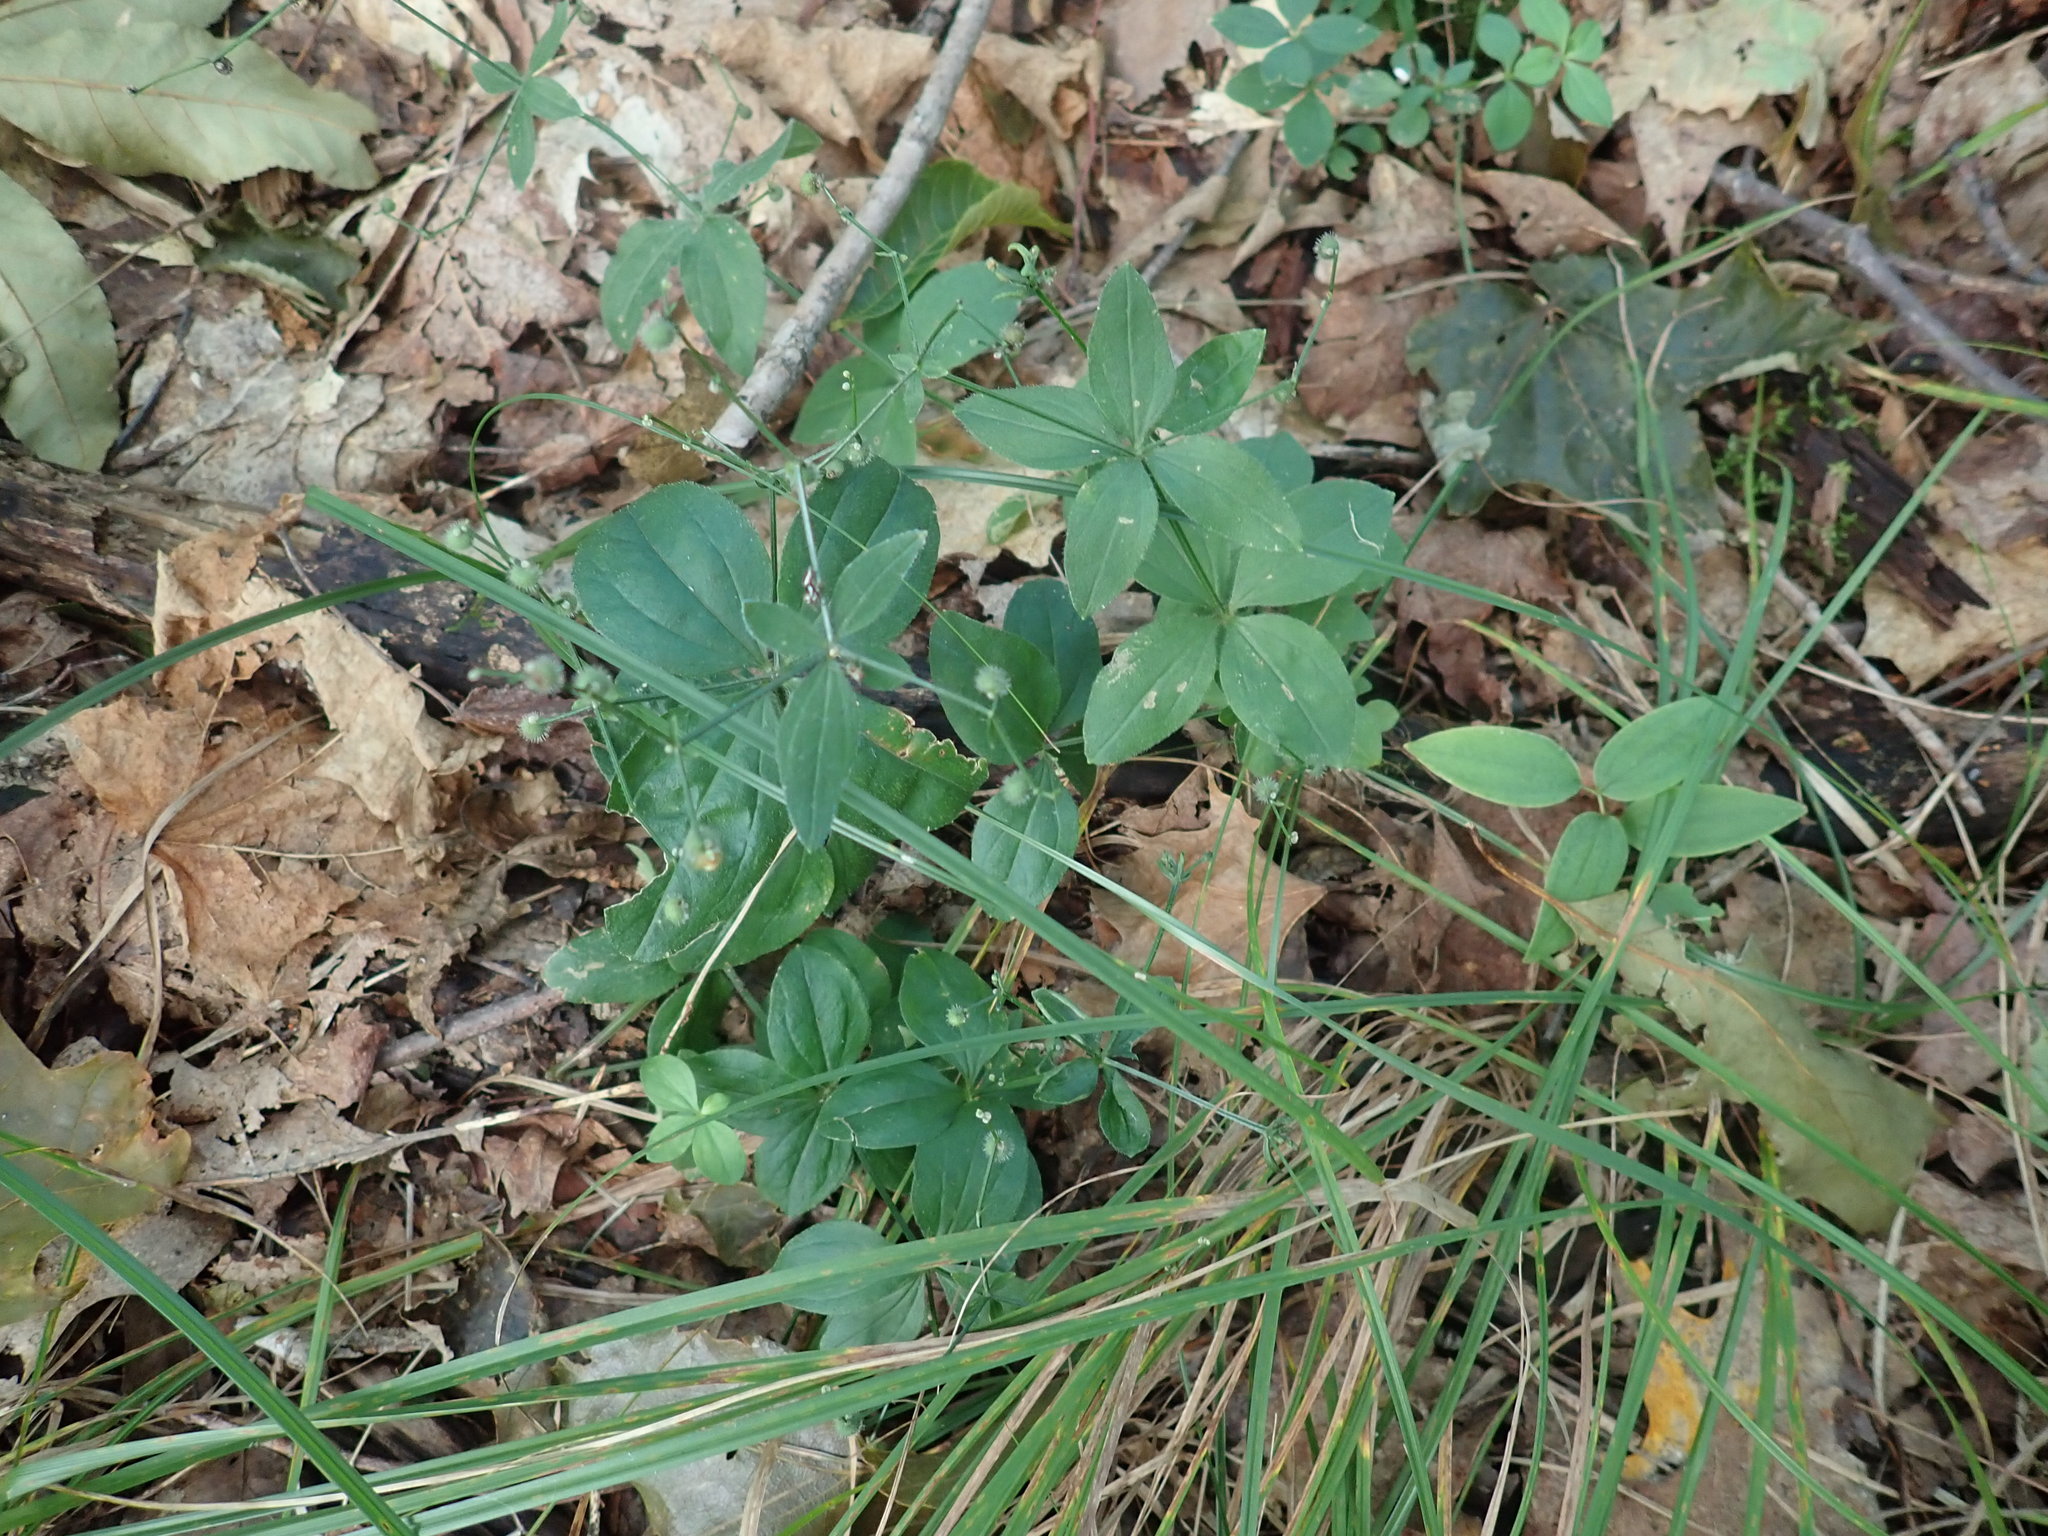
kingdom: Plantae
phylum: Tracheophyta
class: Magnoliopsida
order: Gentianales
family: Rubiaceae
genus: Galium
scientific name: Galium circaezans
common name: Forest bedstraw
